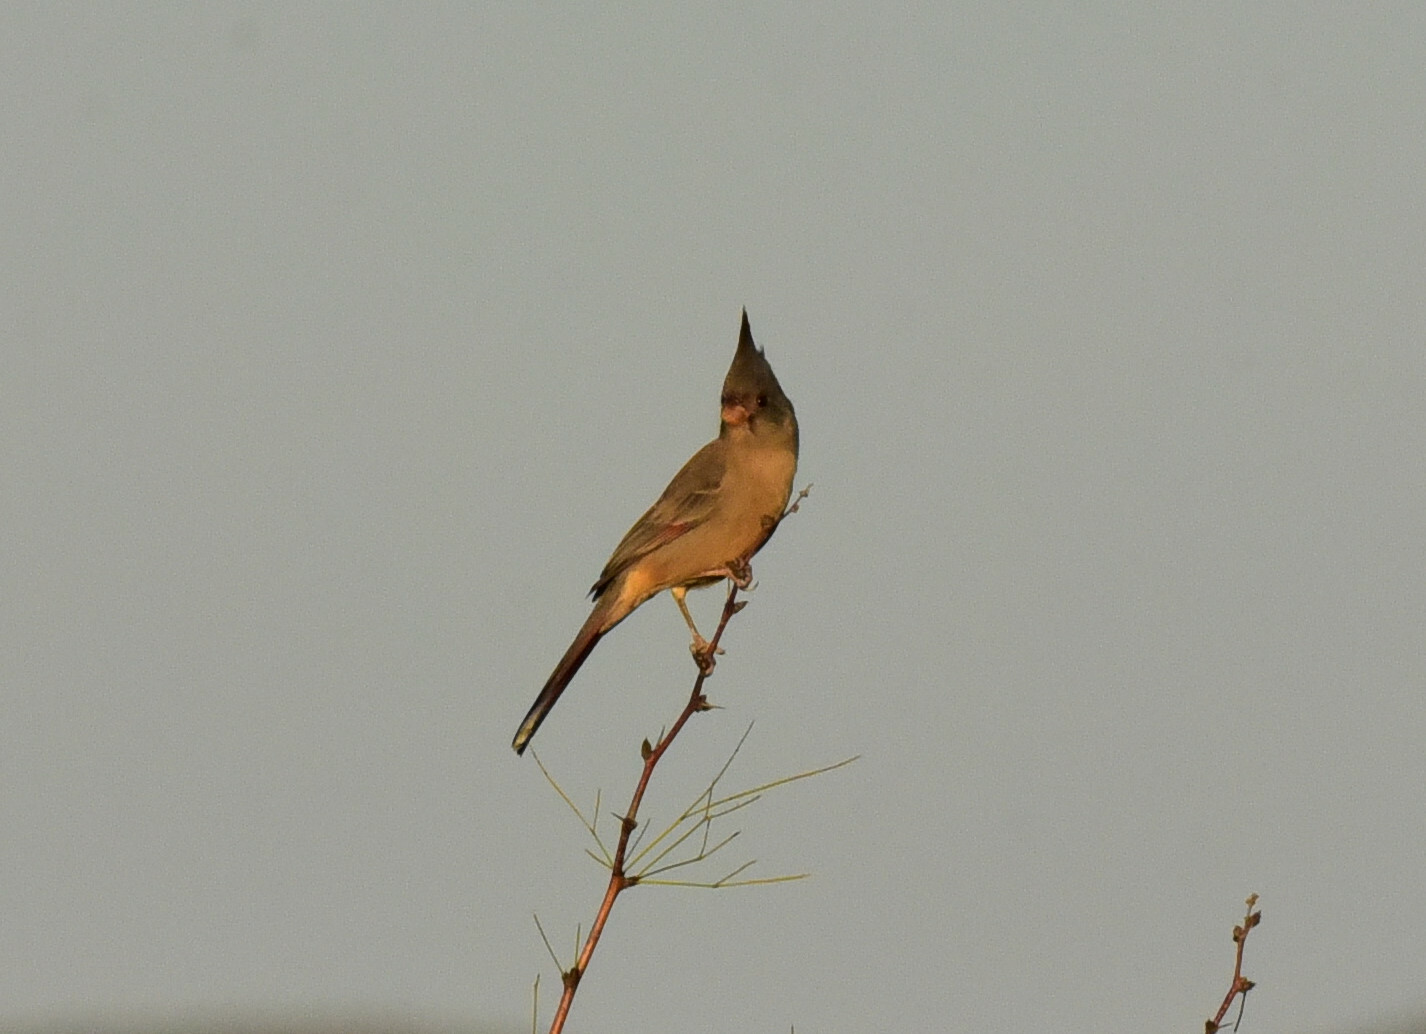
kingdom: Animalia
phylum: Chordata
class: Aves
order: Passeriformes
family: Cardinalidae
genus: Cardinalis
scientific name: Cardinalis sinuatus
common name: Pyrrhuloxia
